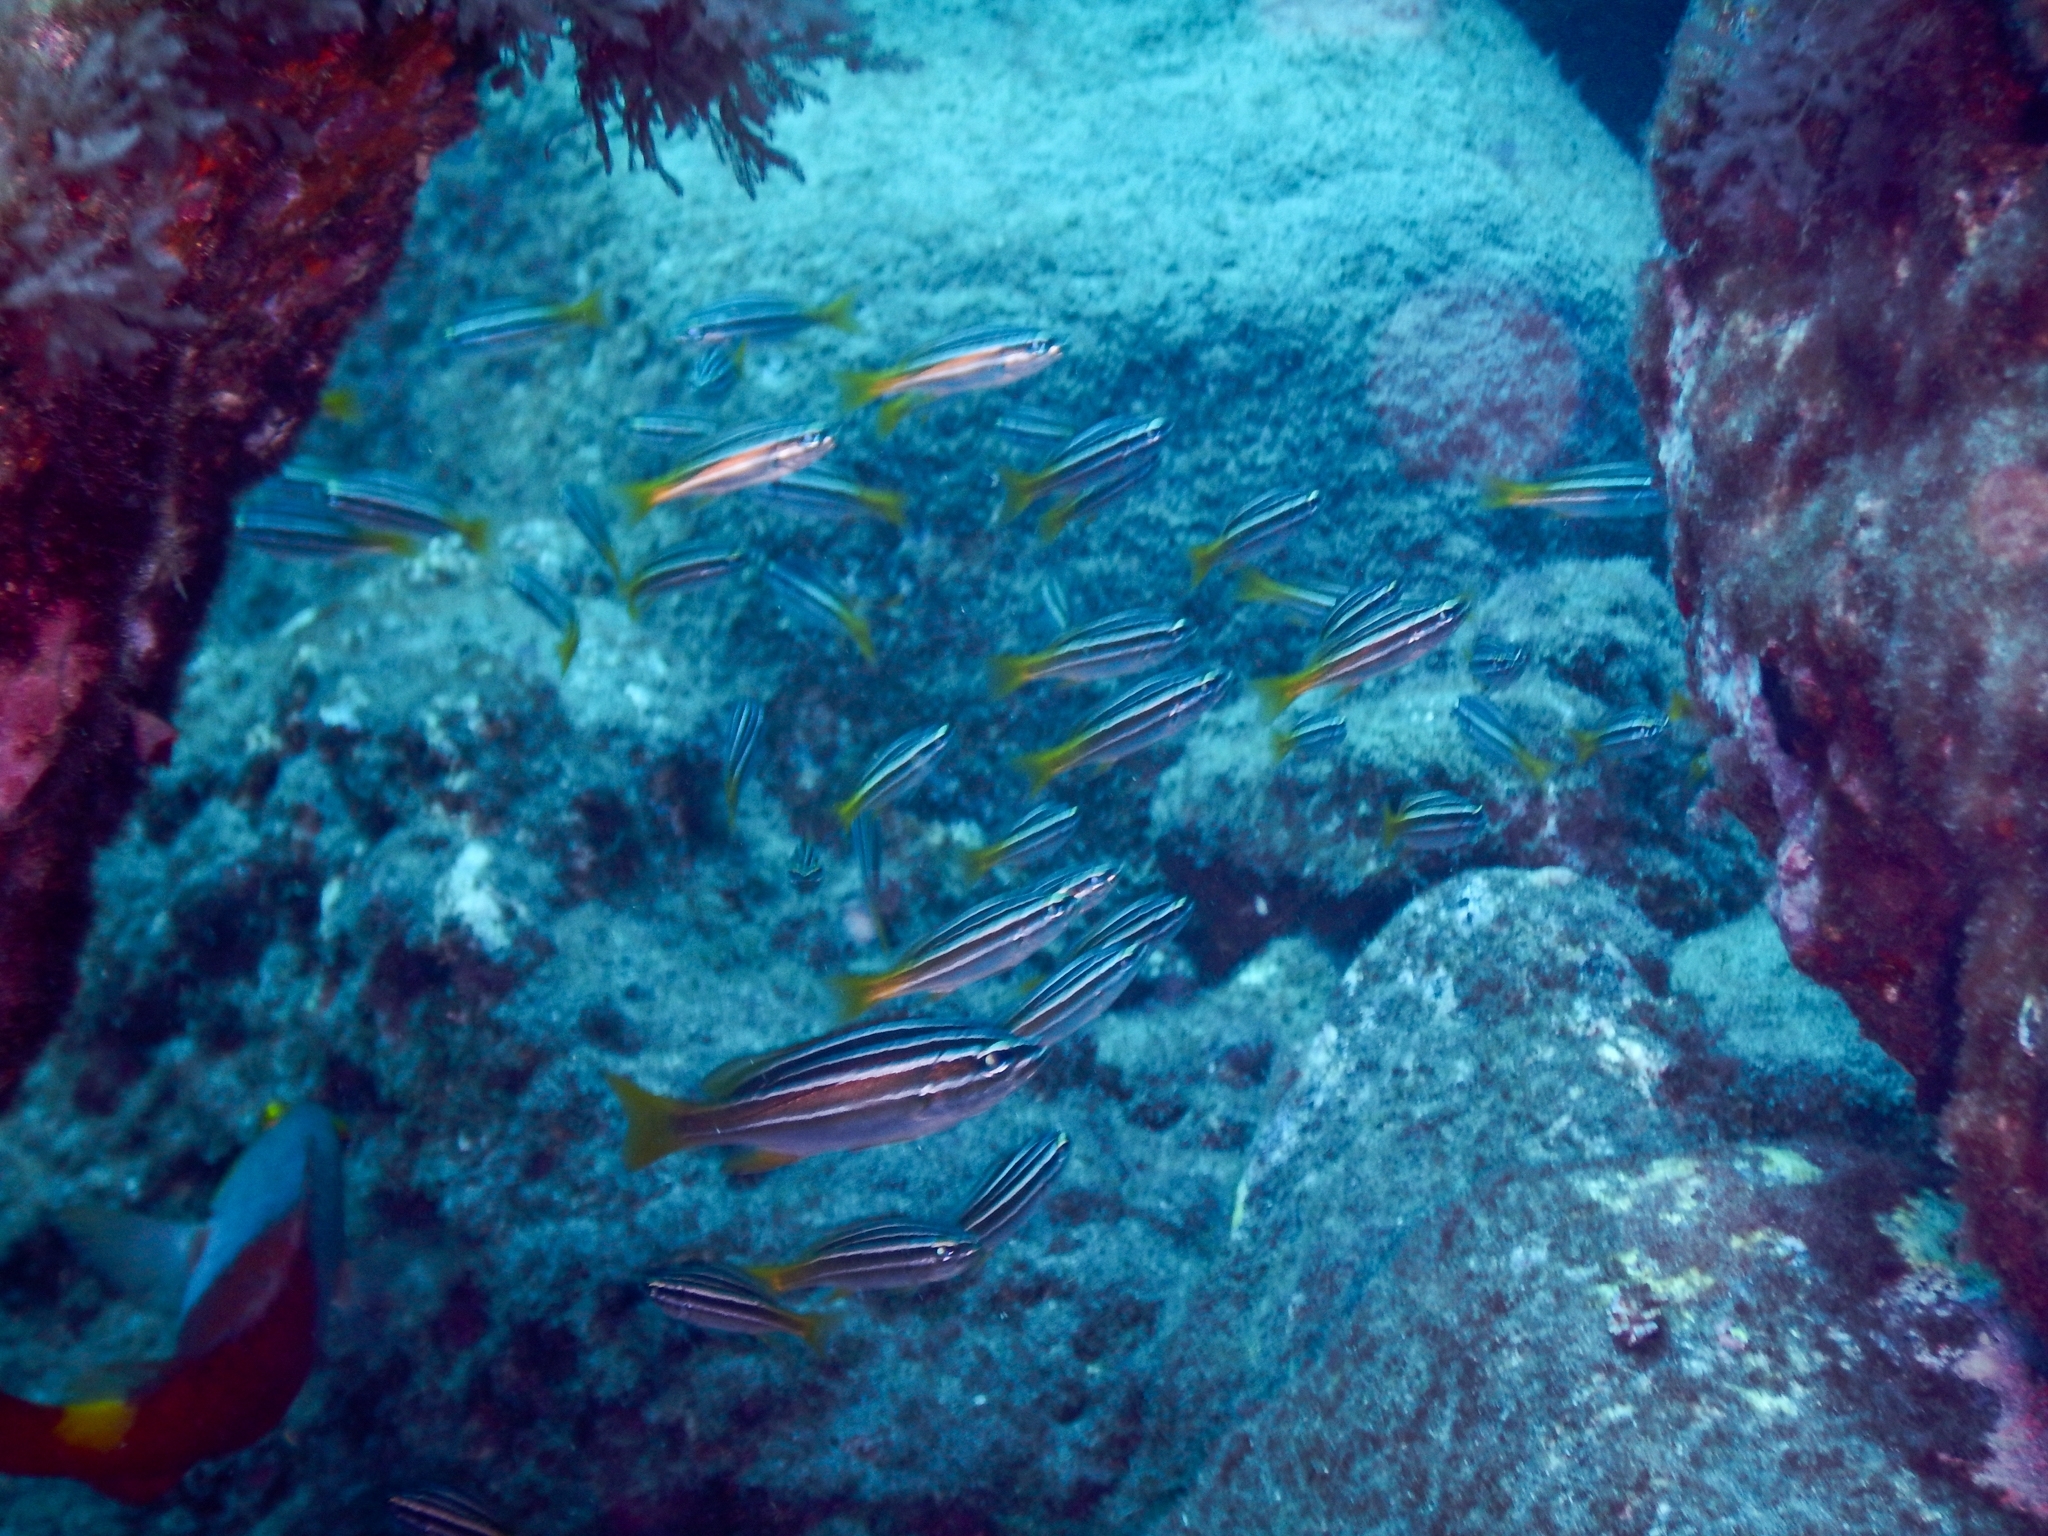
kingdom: Animalia
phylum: Chordata
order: Perciformes
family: Haemulidae
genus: Parapristipoma
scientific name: Parapristipoma octolineatum
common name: African striped grunt
